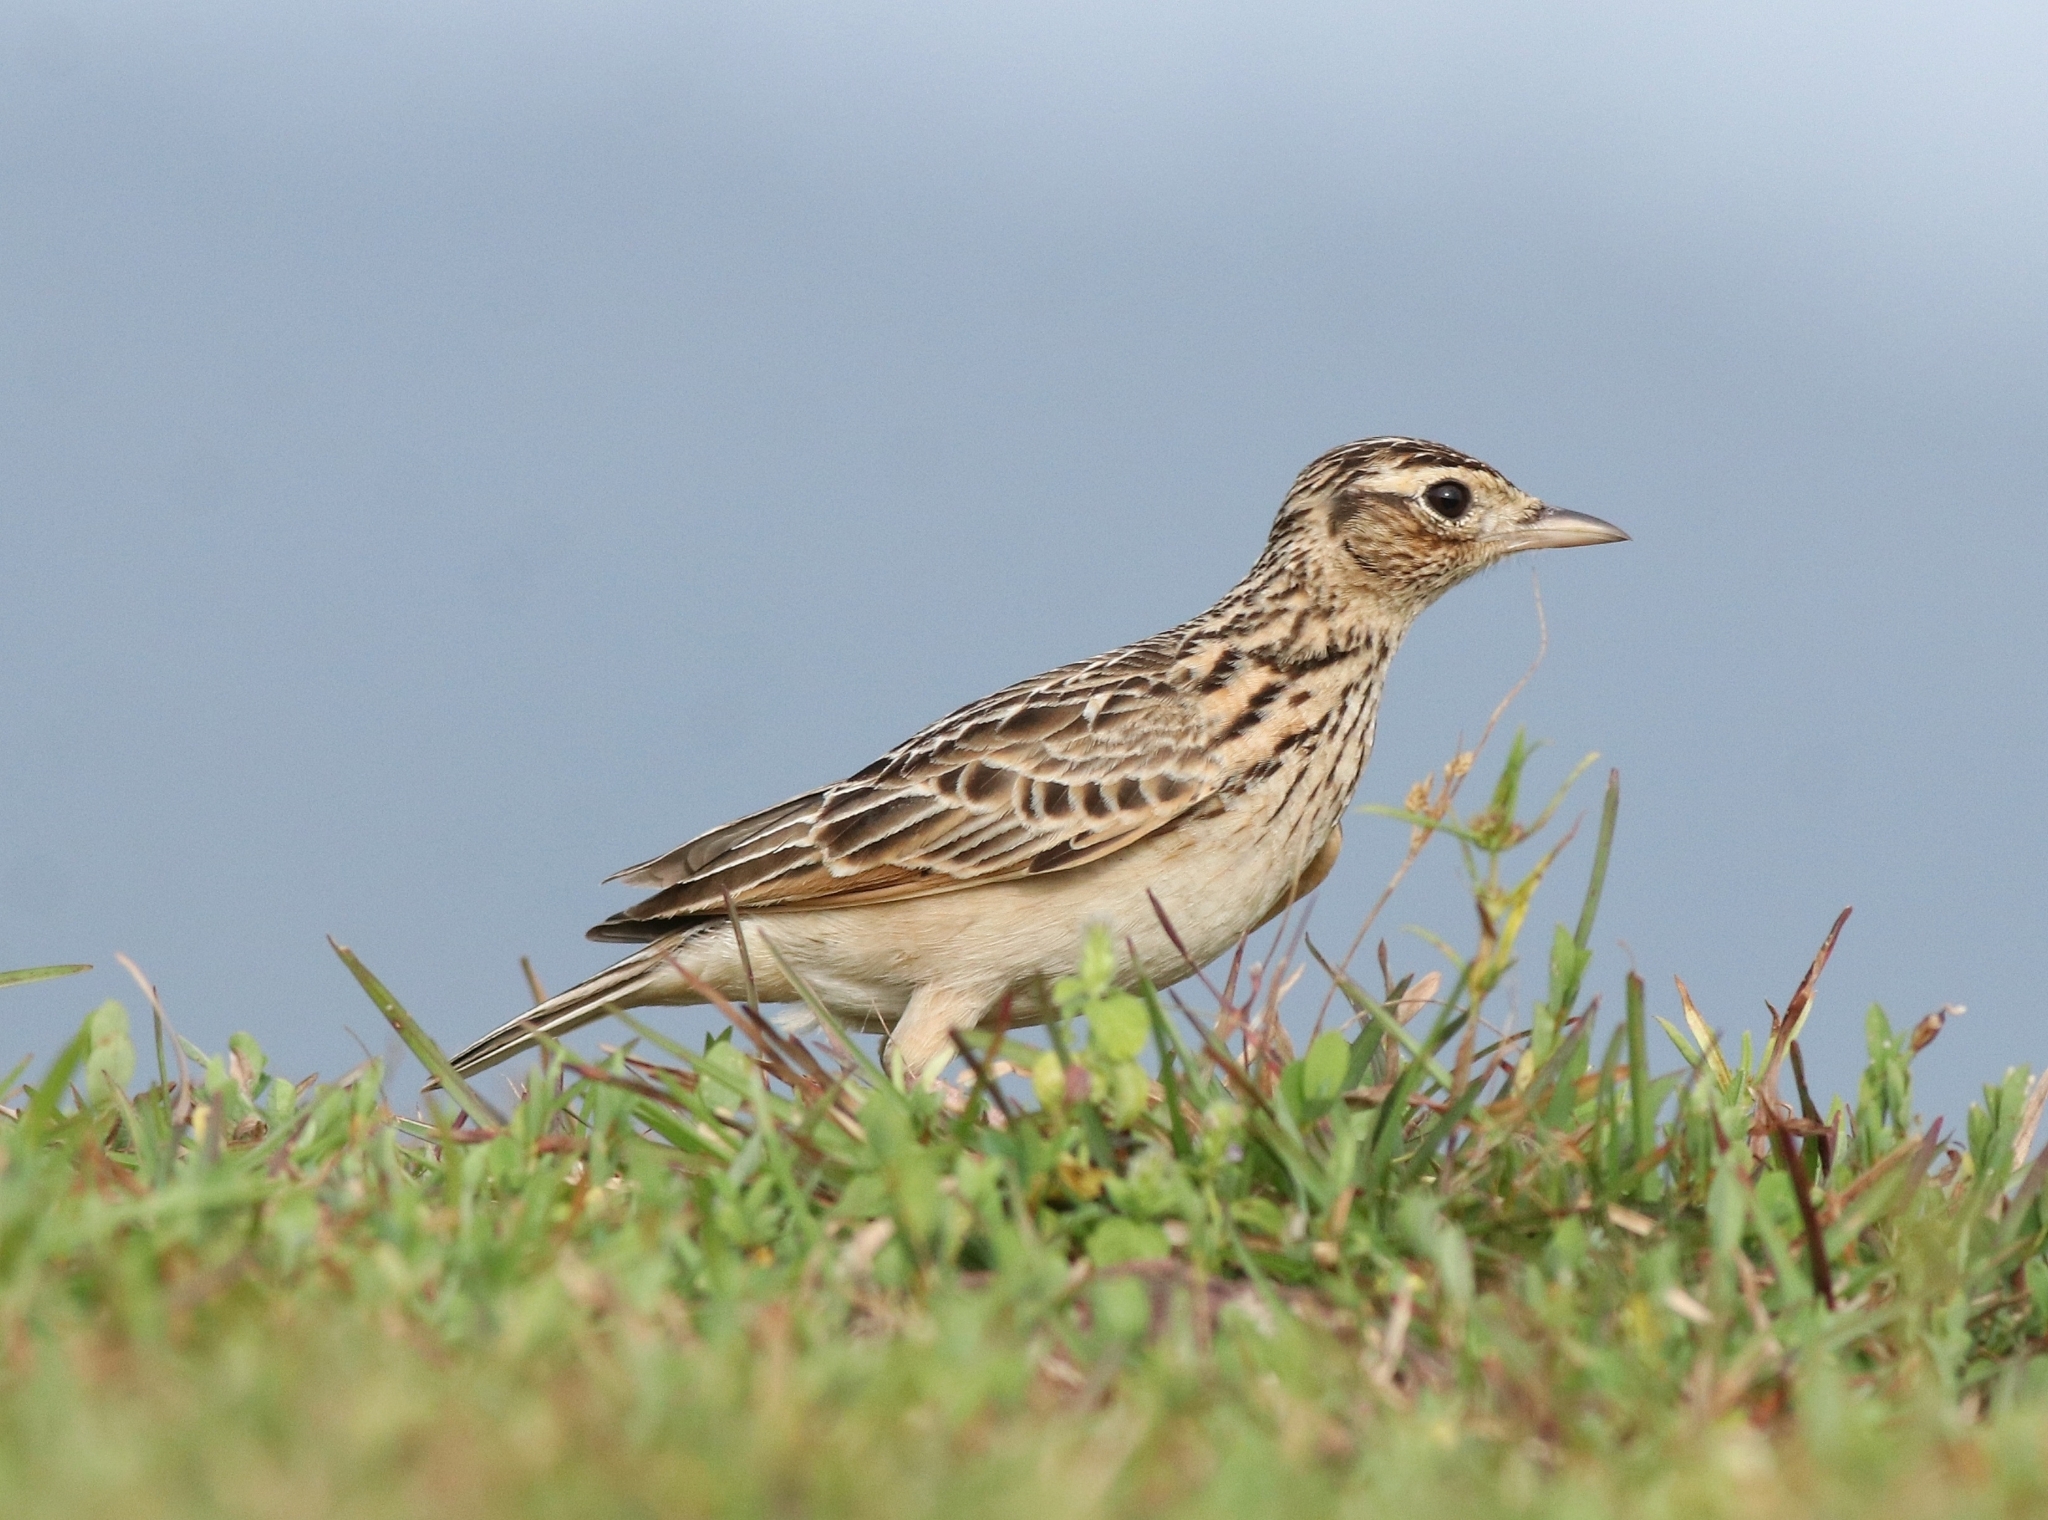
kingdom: Animalia
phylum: Chordata
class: Aves
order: Passeriformes
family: Alaudidae
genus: Alauda
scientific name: Alauda gulgula
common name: Oriental skylark
